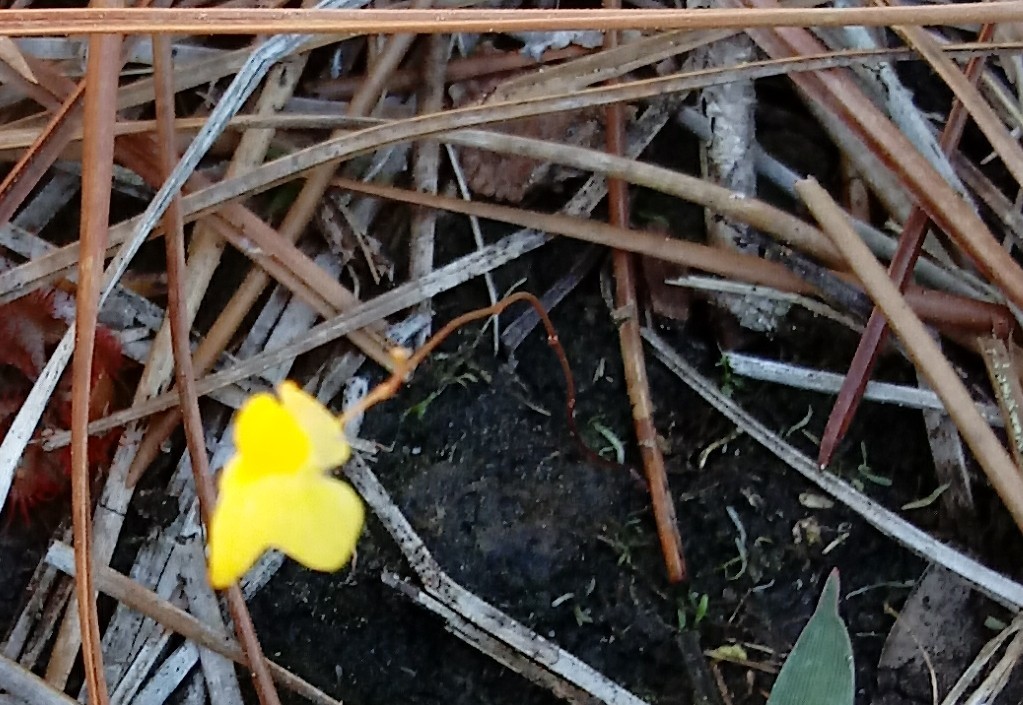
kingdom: Plantae
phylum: Tracheophyta
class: Magnoliopsida
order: Lamiales
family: Lentibulariaceae
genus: Utricularia
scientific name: Utricularia subulata
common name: Tiny bladderwort
